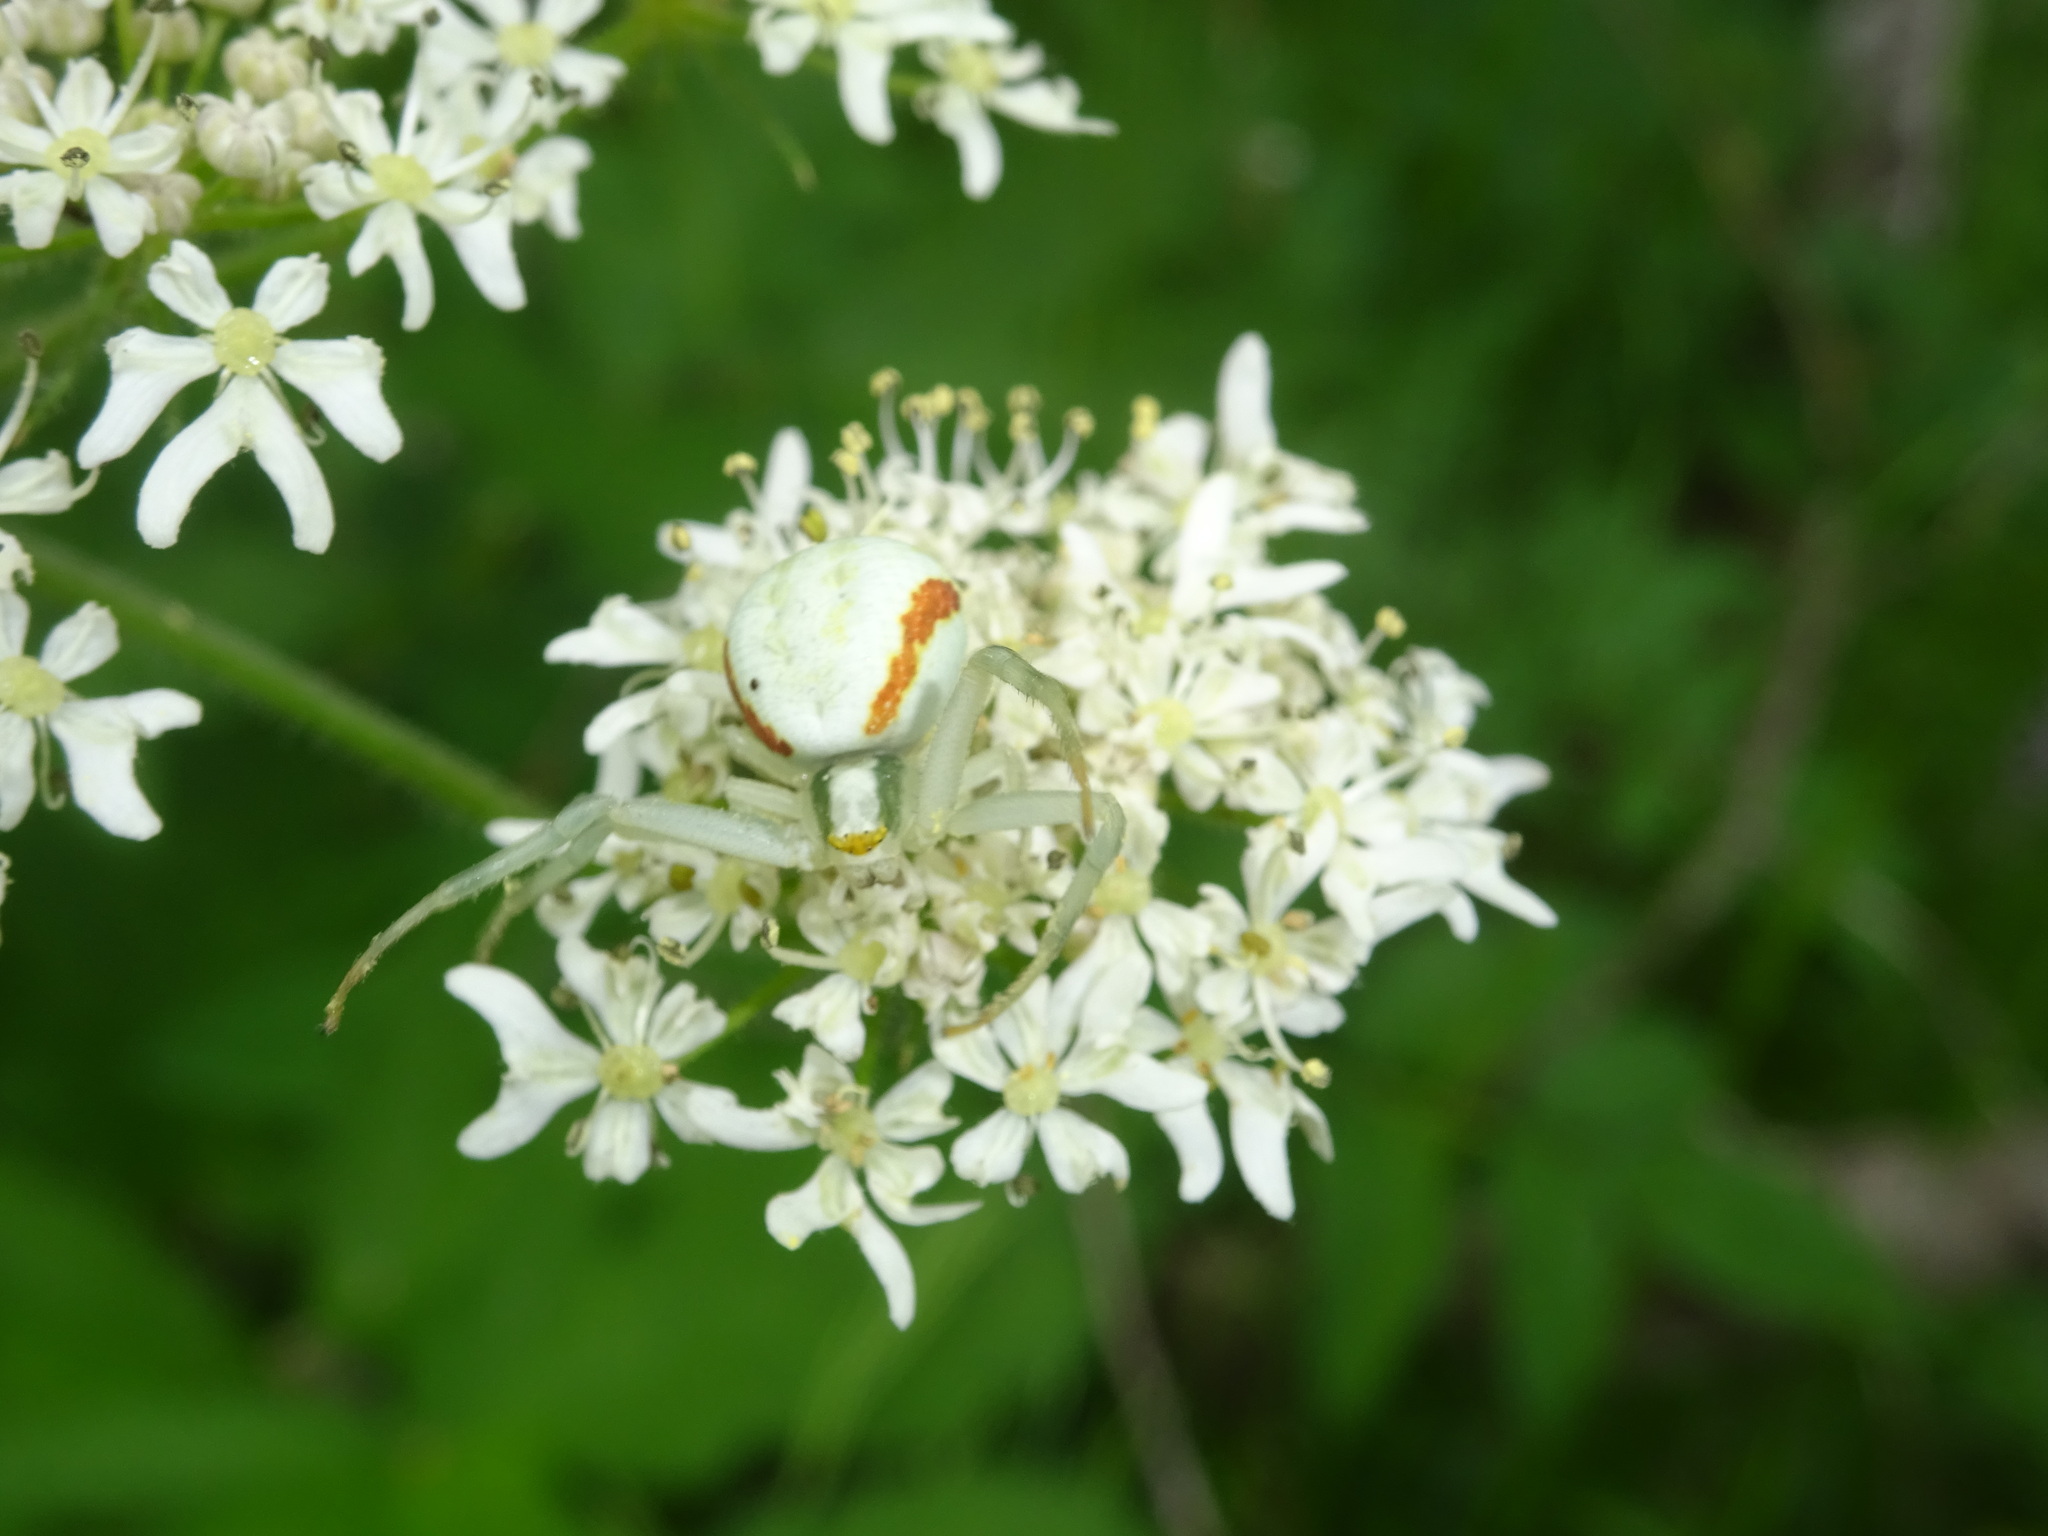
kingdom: Animalia
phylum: Arthropoda
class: Arachnida
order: Araneae
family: Thomisidae
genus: Misumena
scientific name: Misumena vatia
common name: Goldenrod crab spider
